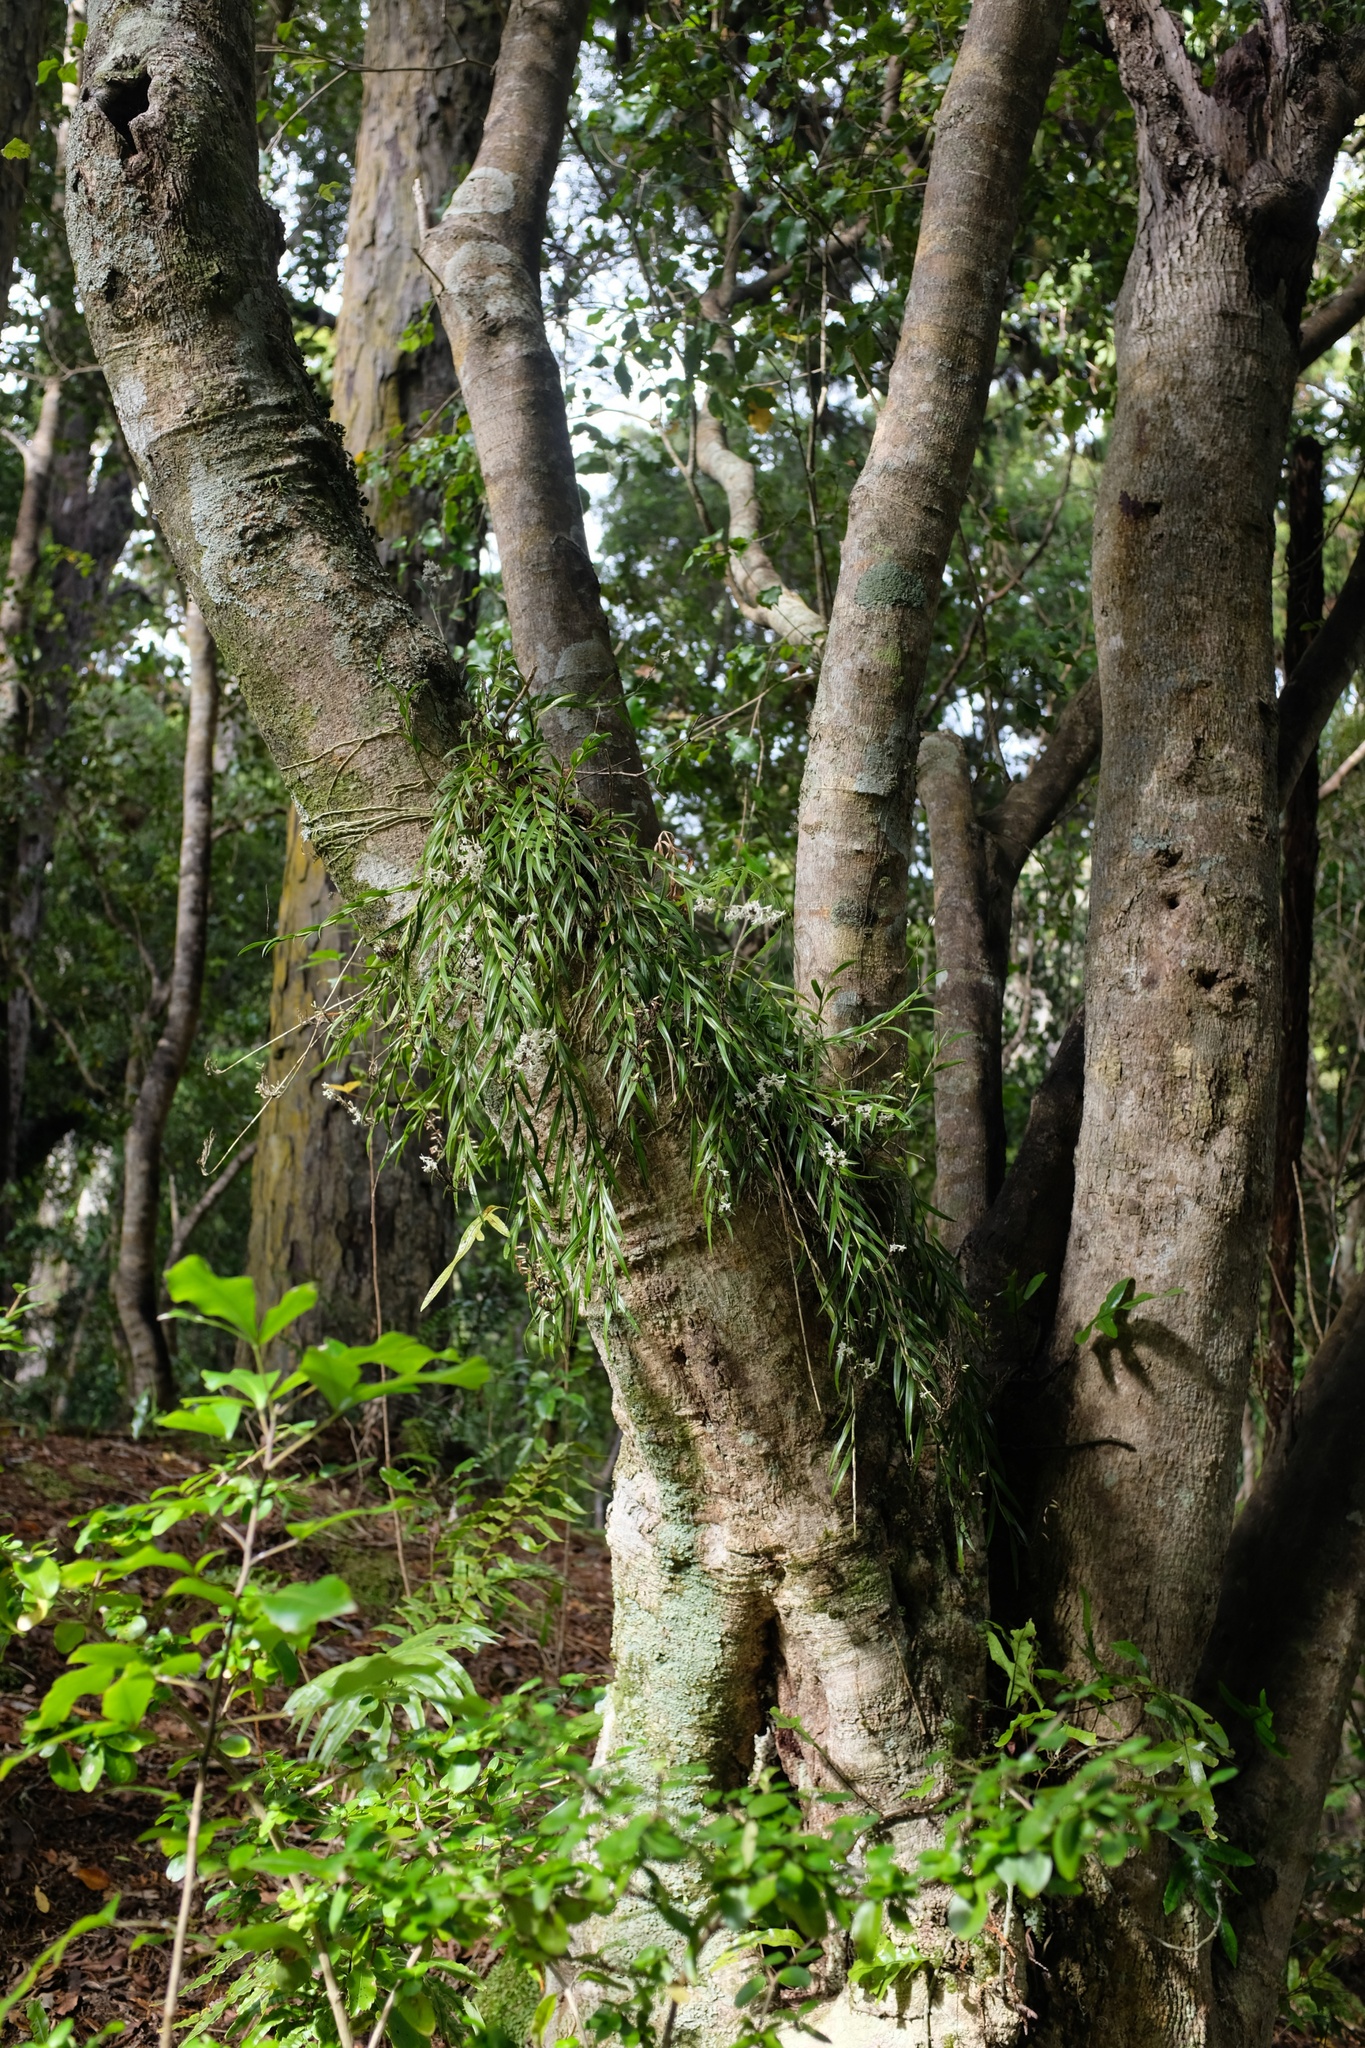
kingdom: Plantae
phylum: Tracheophyta
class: Liliopsida
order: Asparagales
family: Orchidaceae
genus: Earina
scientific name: Earina autumnalis
